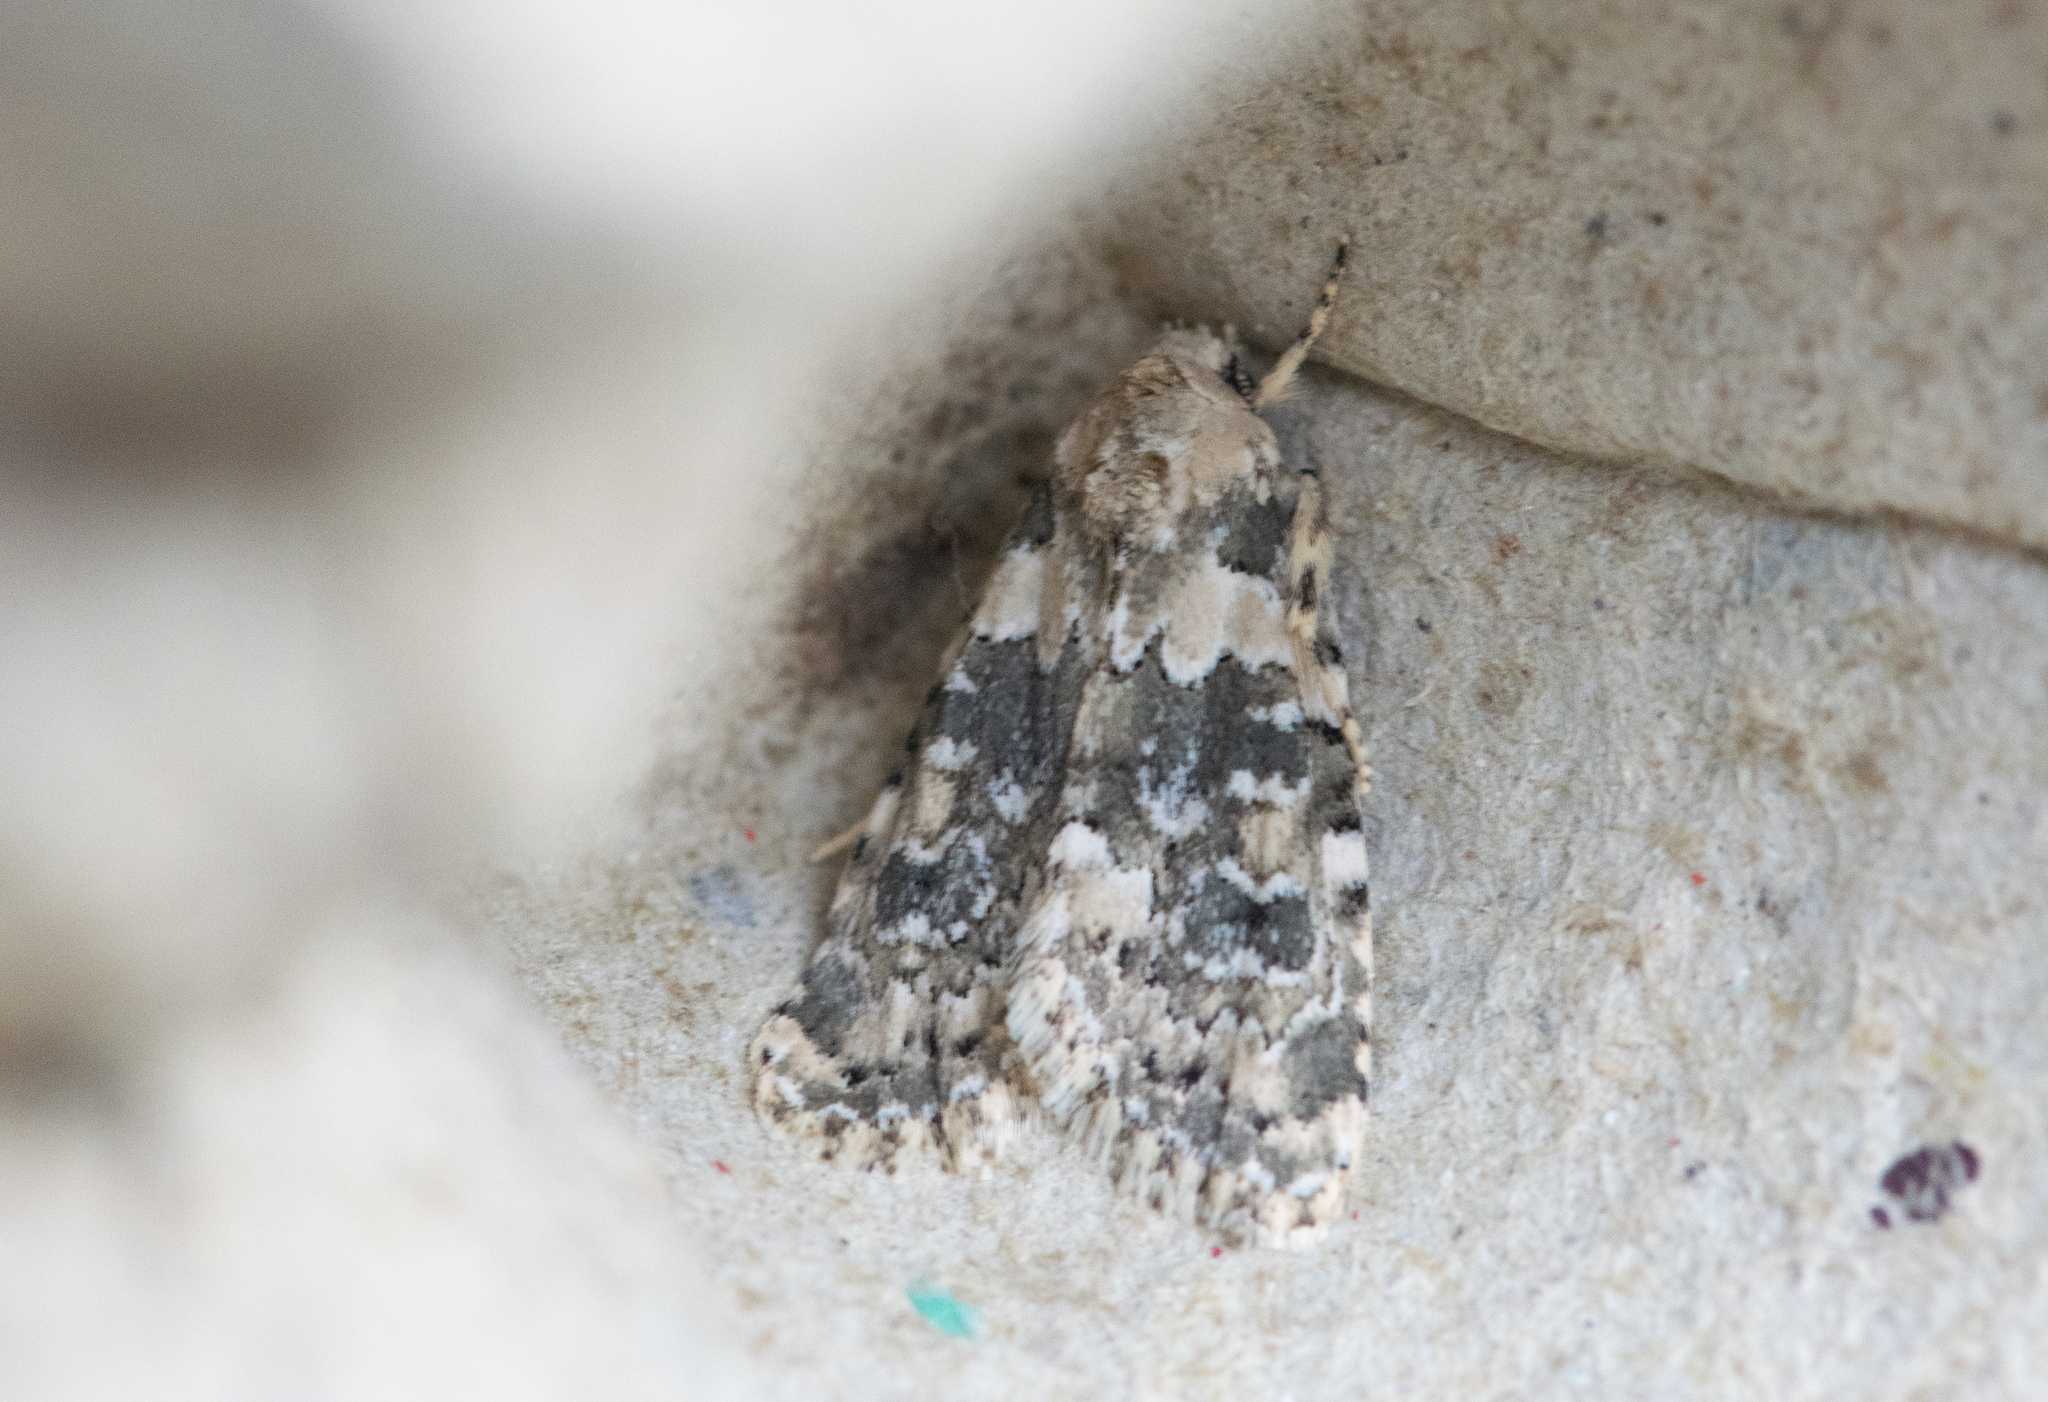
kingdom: Animalia
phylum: Arthropoda
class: Insecta
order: Lepidoptera
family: Noctuidae
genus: Bryophila
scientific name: Bryophila domestica
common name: Marbled beauty
